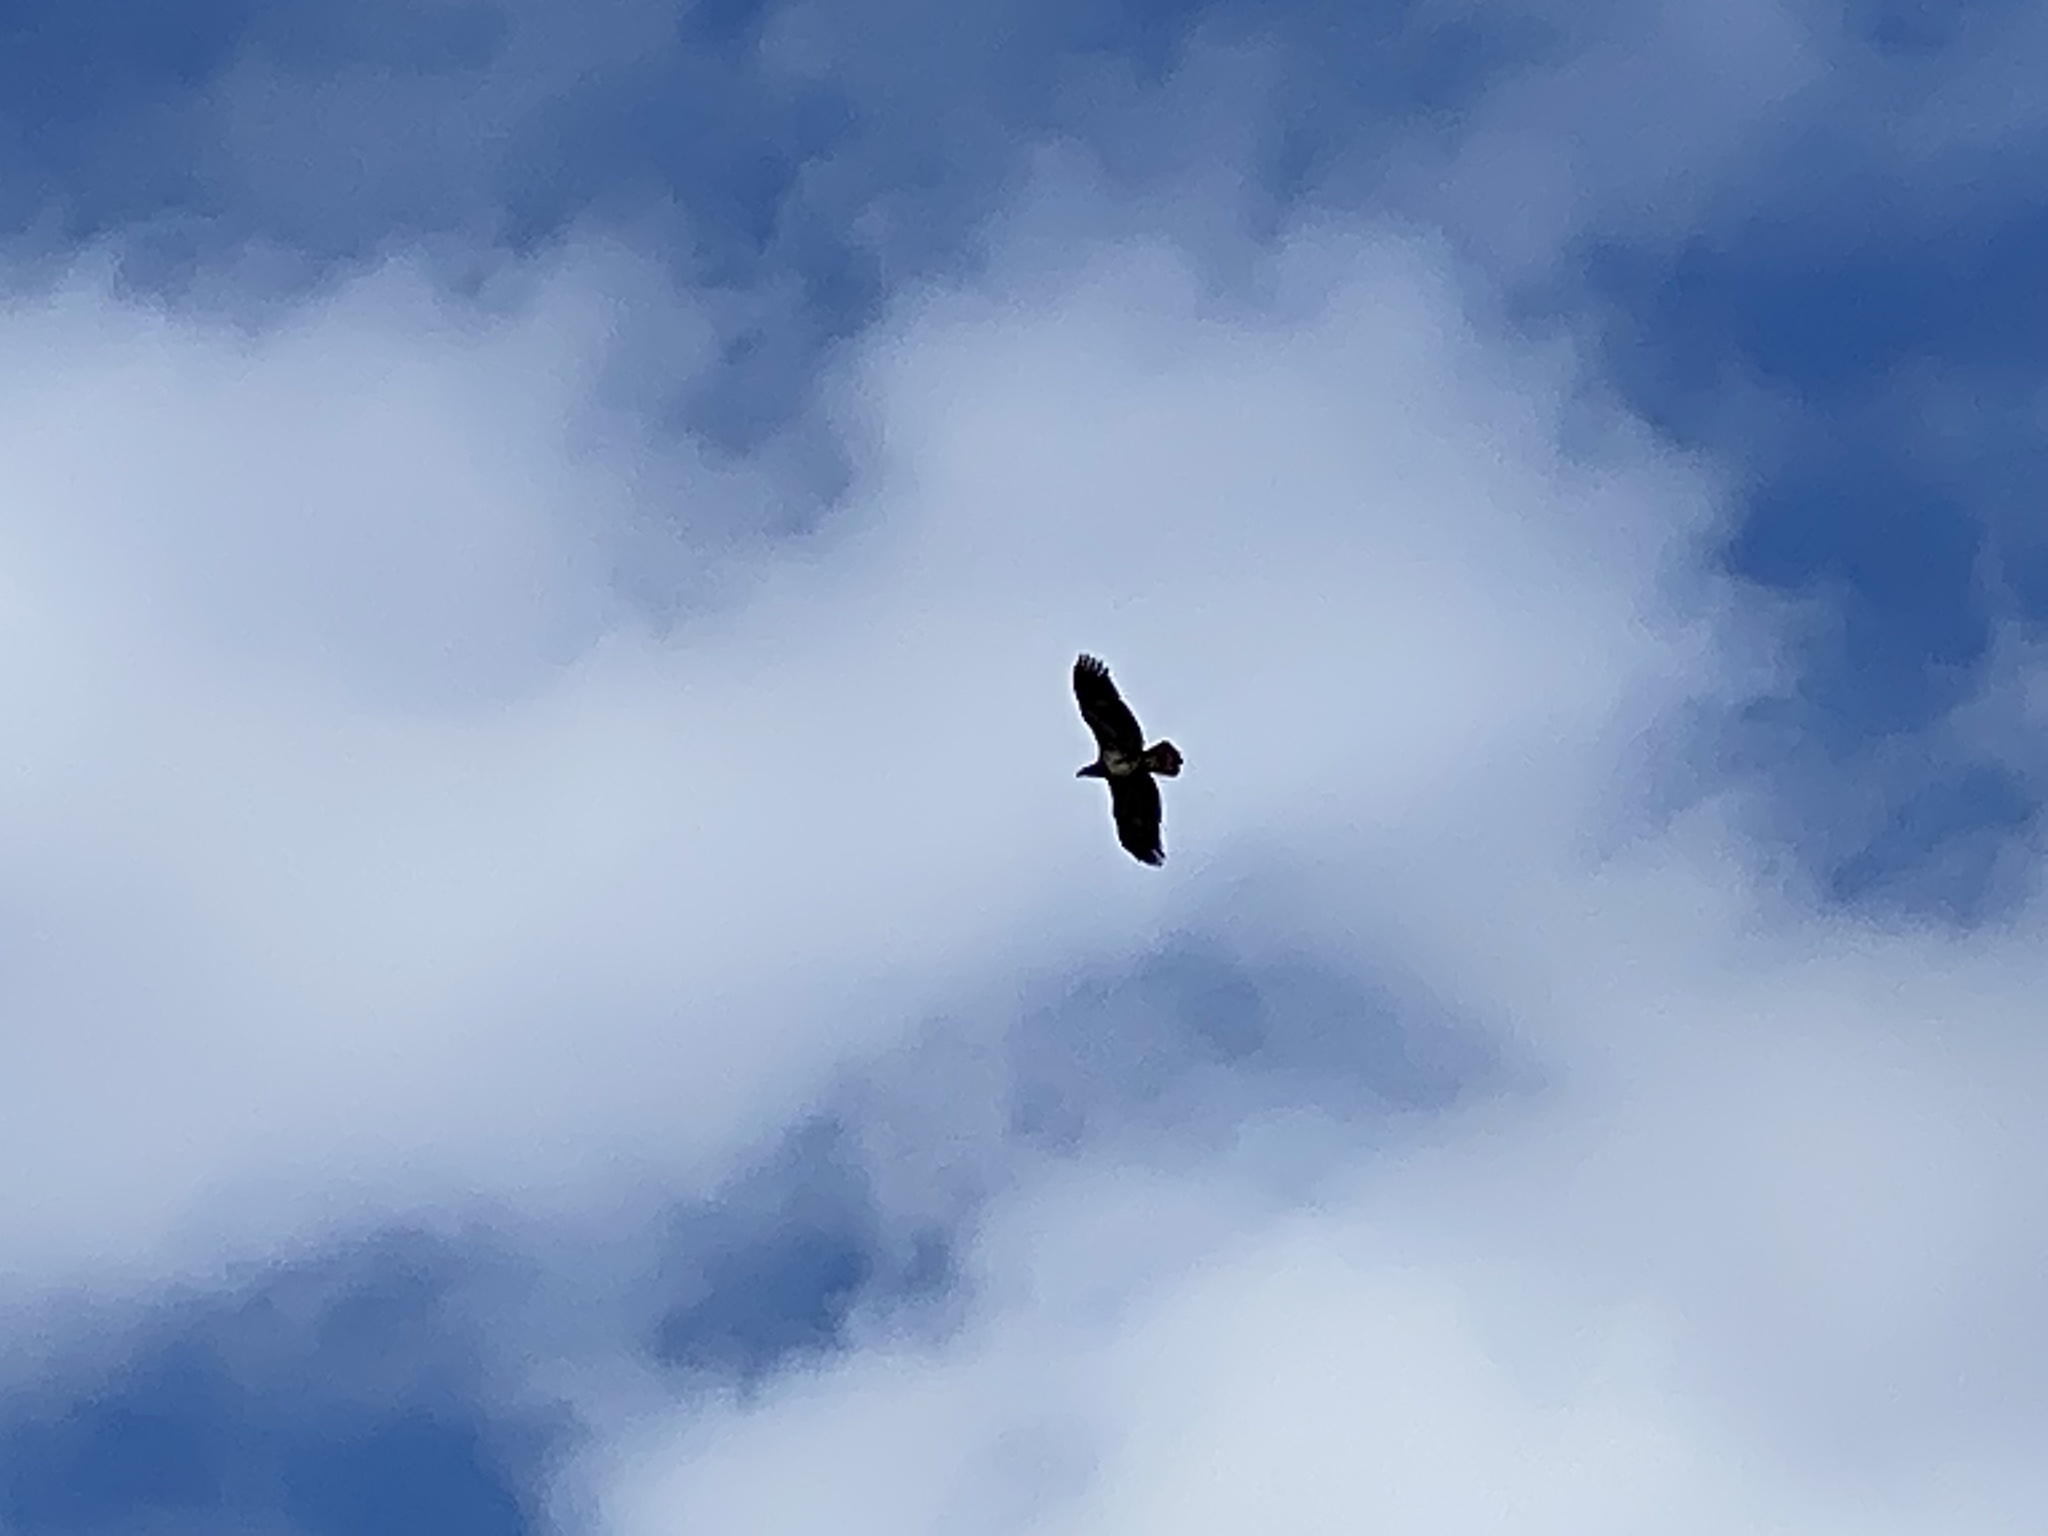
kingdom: Animalia
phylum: Chordata
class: Aves
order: Accipitriformes
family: Accipitridae
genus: Haliaeetus
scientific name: Haliaeetus leucocephalus
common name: Bald eagle
